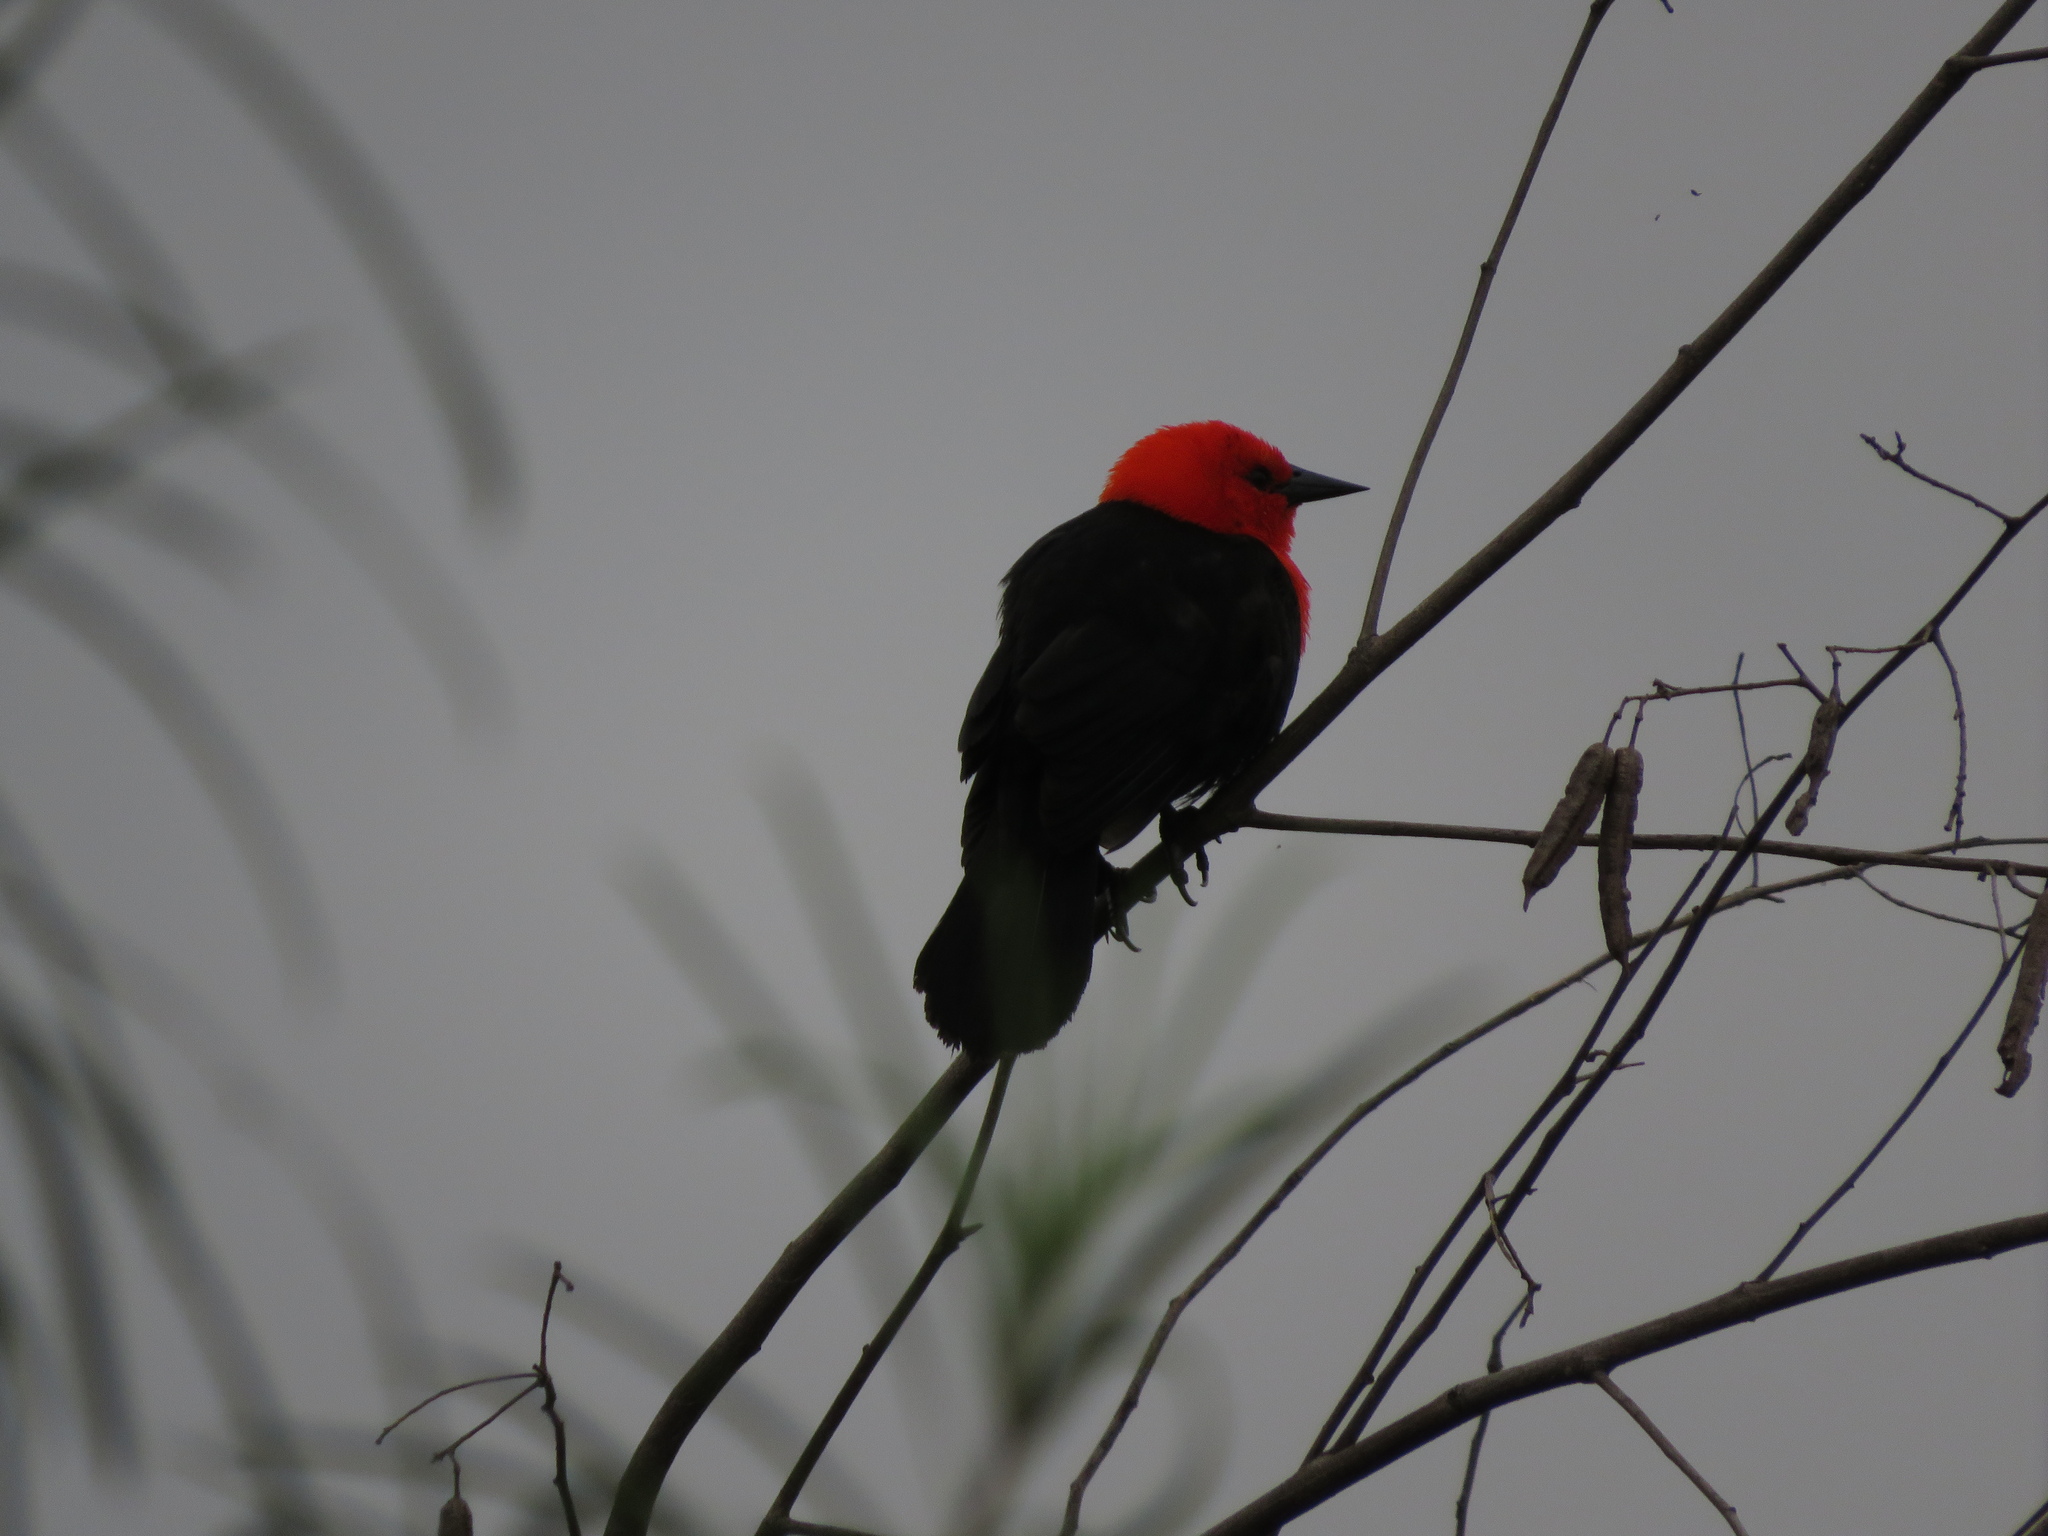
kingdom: Animalia
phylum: Chordata
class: Aves
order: Passeriformes
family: Icteridae
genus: Amblyramphus
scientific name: Amblyramphus holosericeus
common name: Scarlet-headed blackbird
